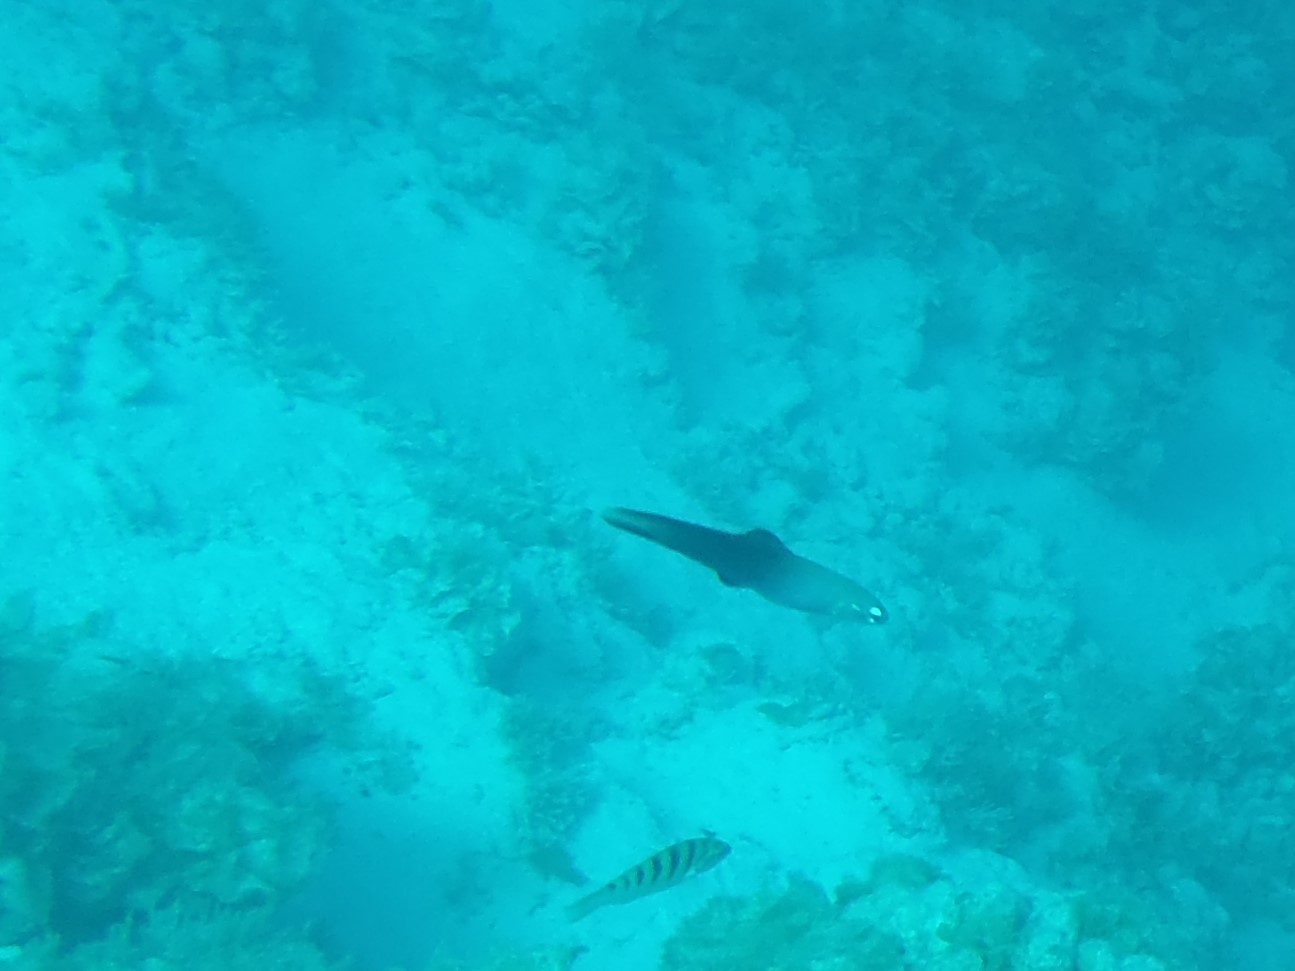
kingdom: Animalia
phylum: Chordata
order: Perciformes
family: Microdesmidae
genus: Ptereleotris
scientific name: Ptereleotris evides
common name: Blackfin dartfish
